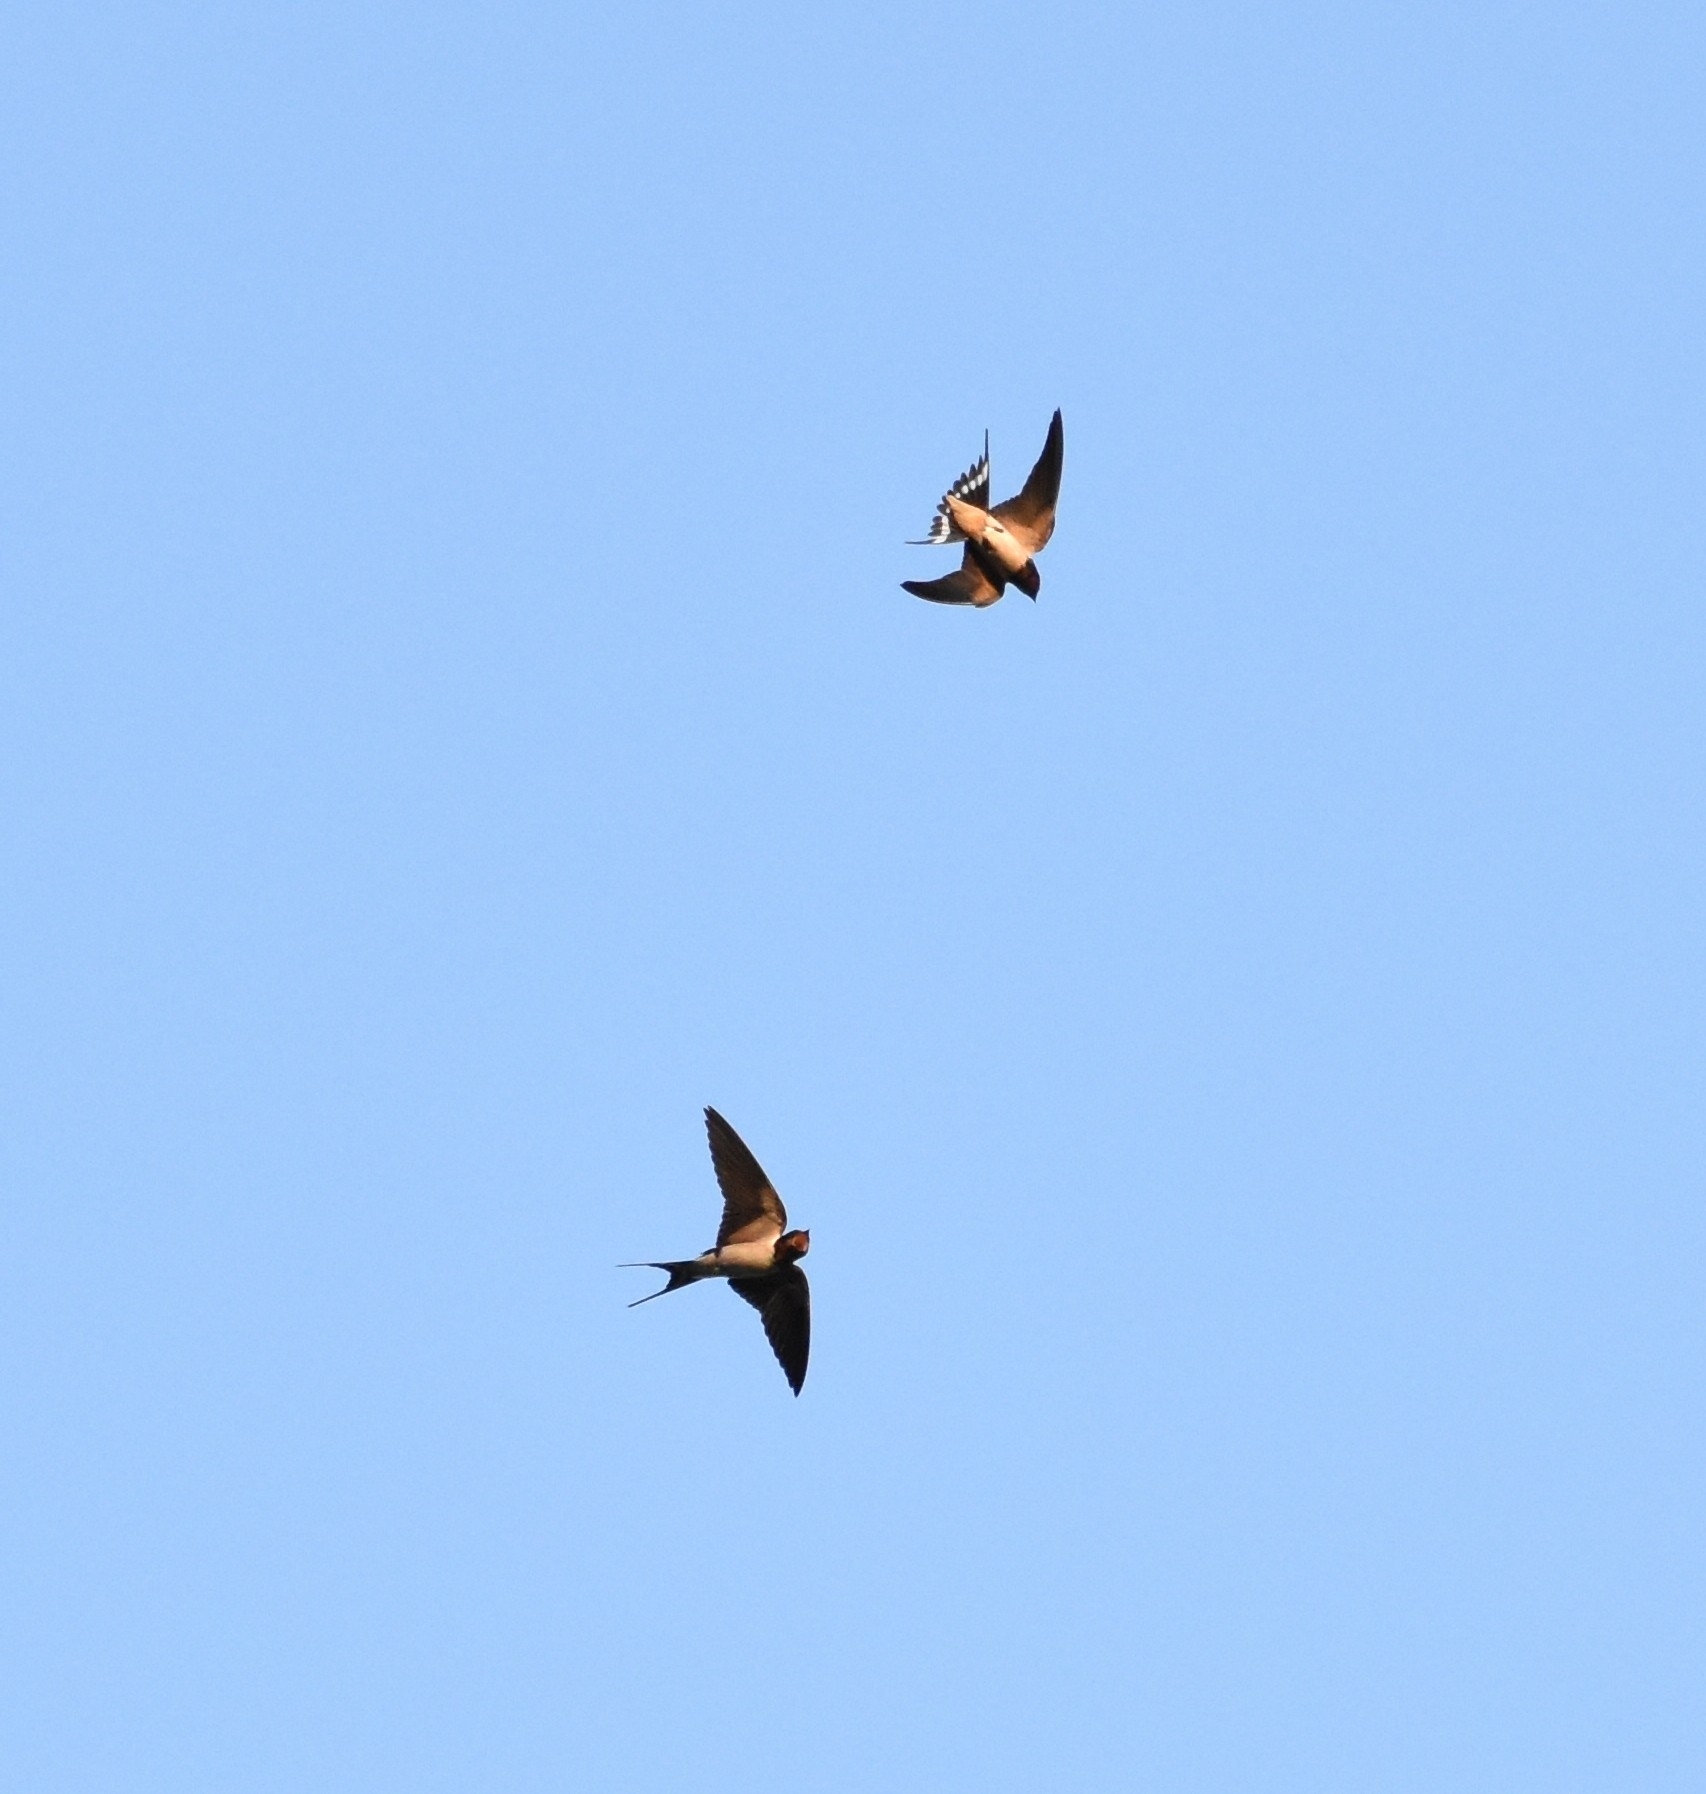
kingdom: Animalia
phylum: Chordata
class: Aves
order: Passeriformes
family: Hirundinidae
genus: Hirundo
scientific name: Hirundo rustica
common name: Barn swallow
